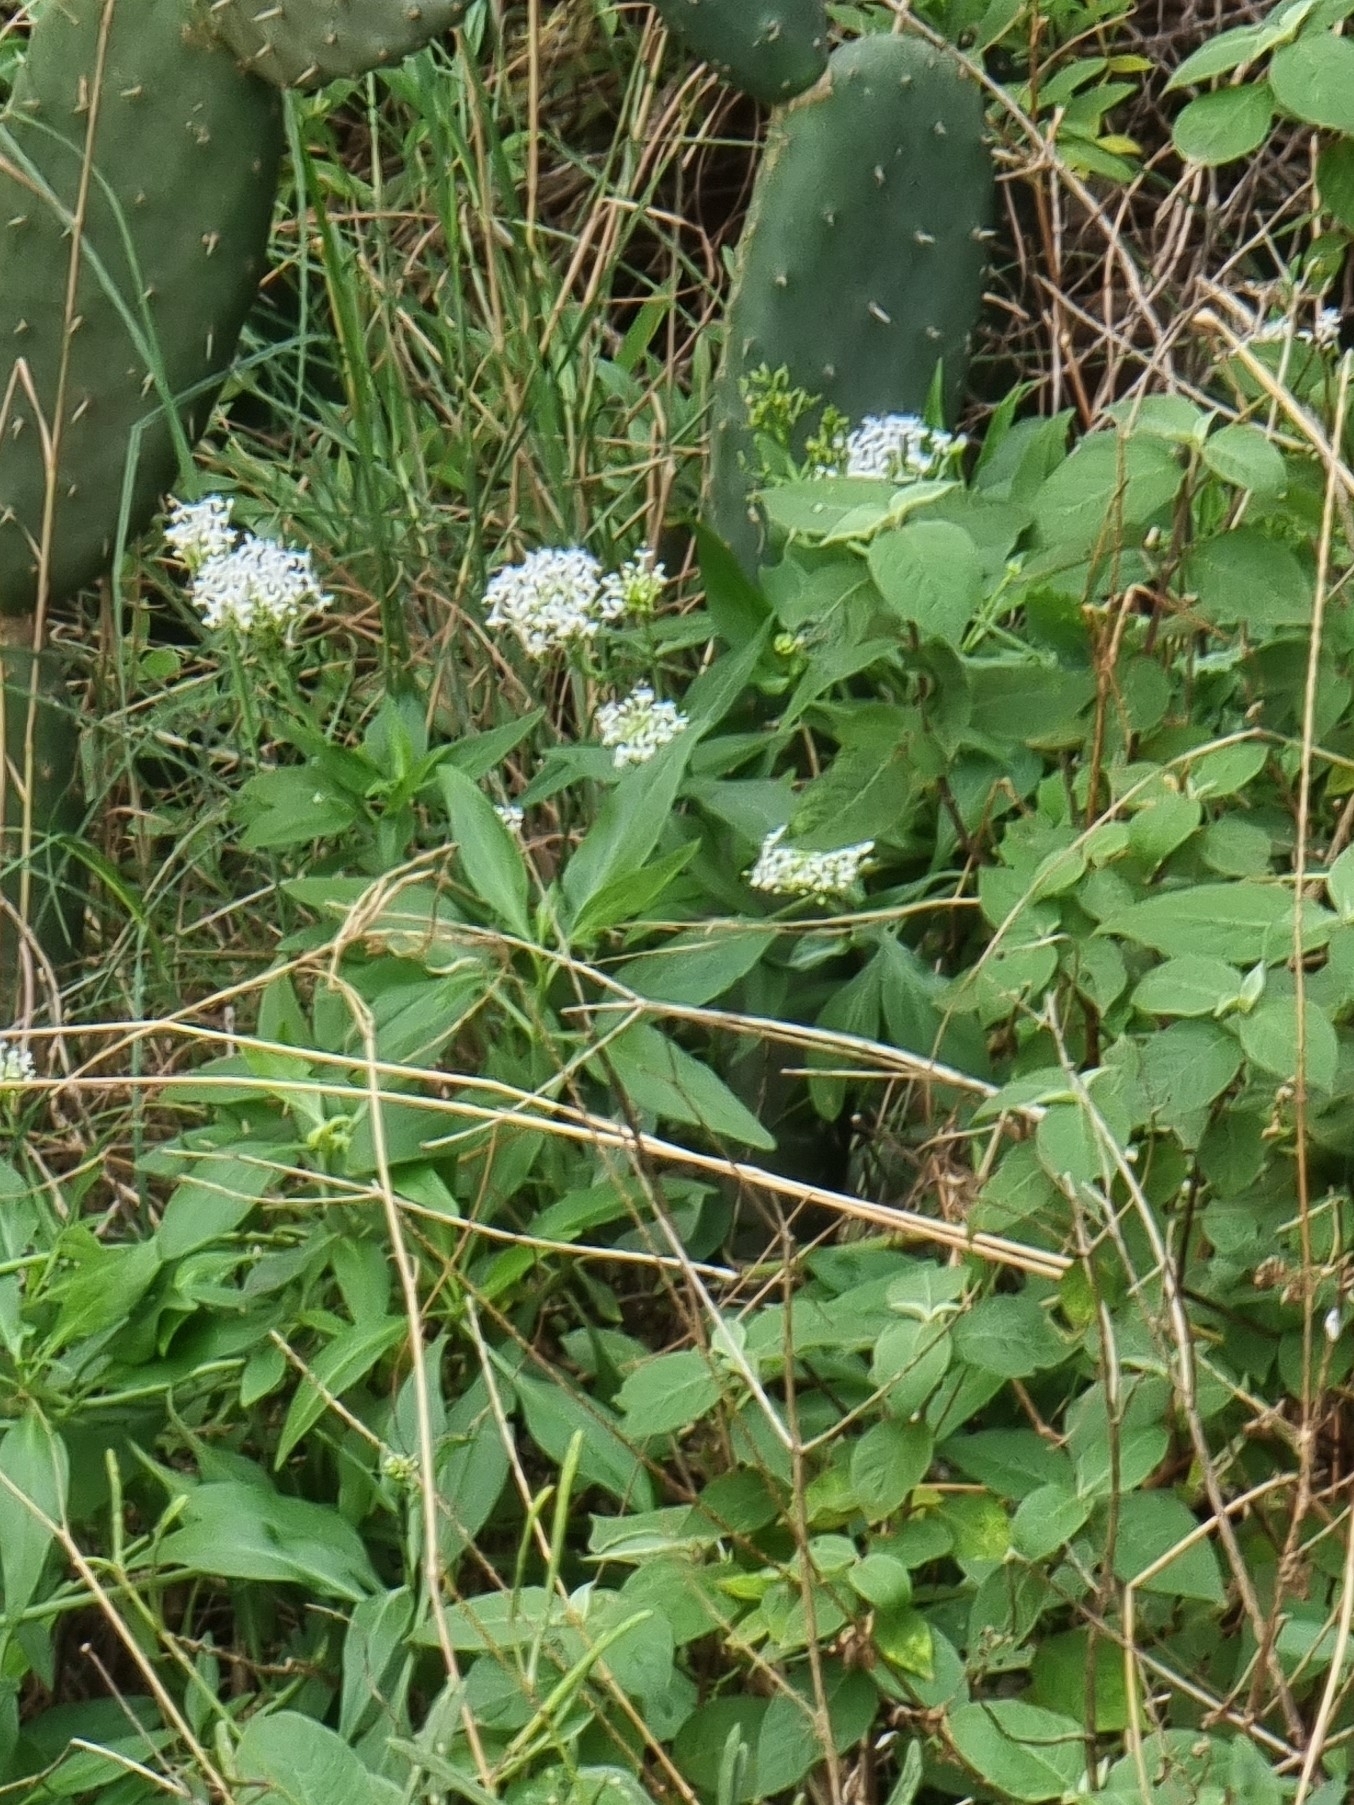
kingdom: Plantae
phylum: Tracheophyta
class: Magnoliopsida
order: Dipsacales
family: Caprifoliaceae
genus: Centranthus
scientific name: Centranthus ruber
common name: Red valerian
